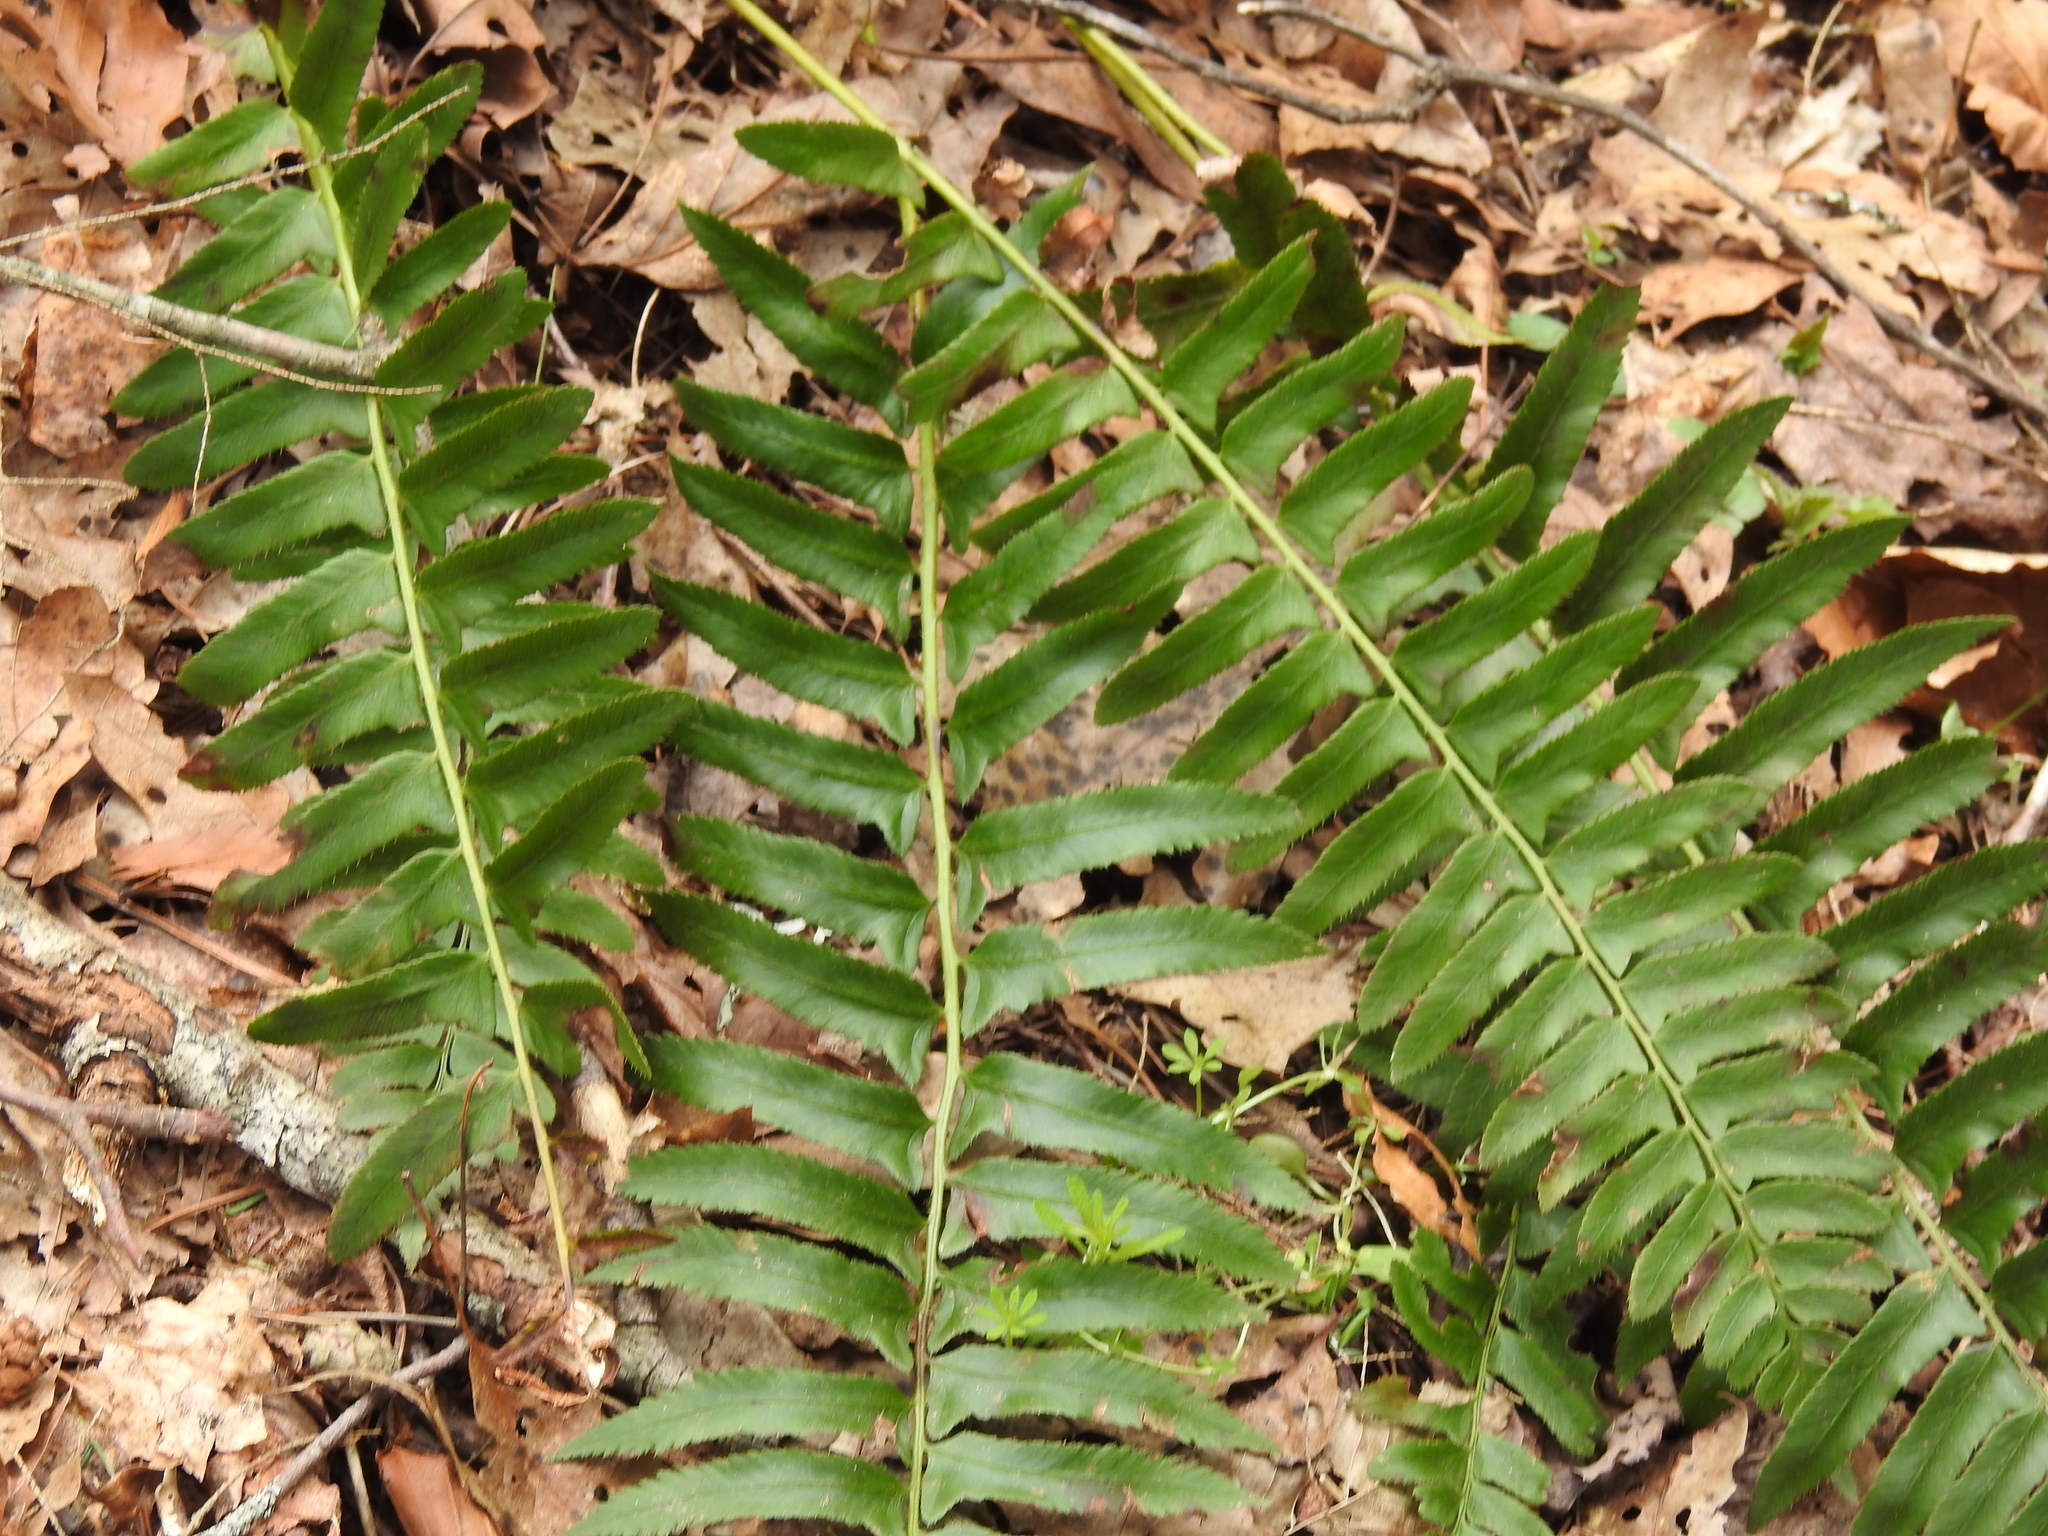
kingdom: Plantae
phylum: Tracheophyta
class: Polypodiopsida
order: Polypodiales
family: Dryopteridaceae
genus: Polystichum
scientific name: Polystichum acrostichoides
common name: Christmas fern
